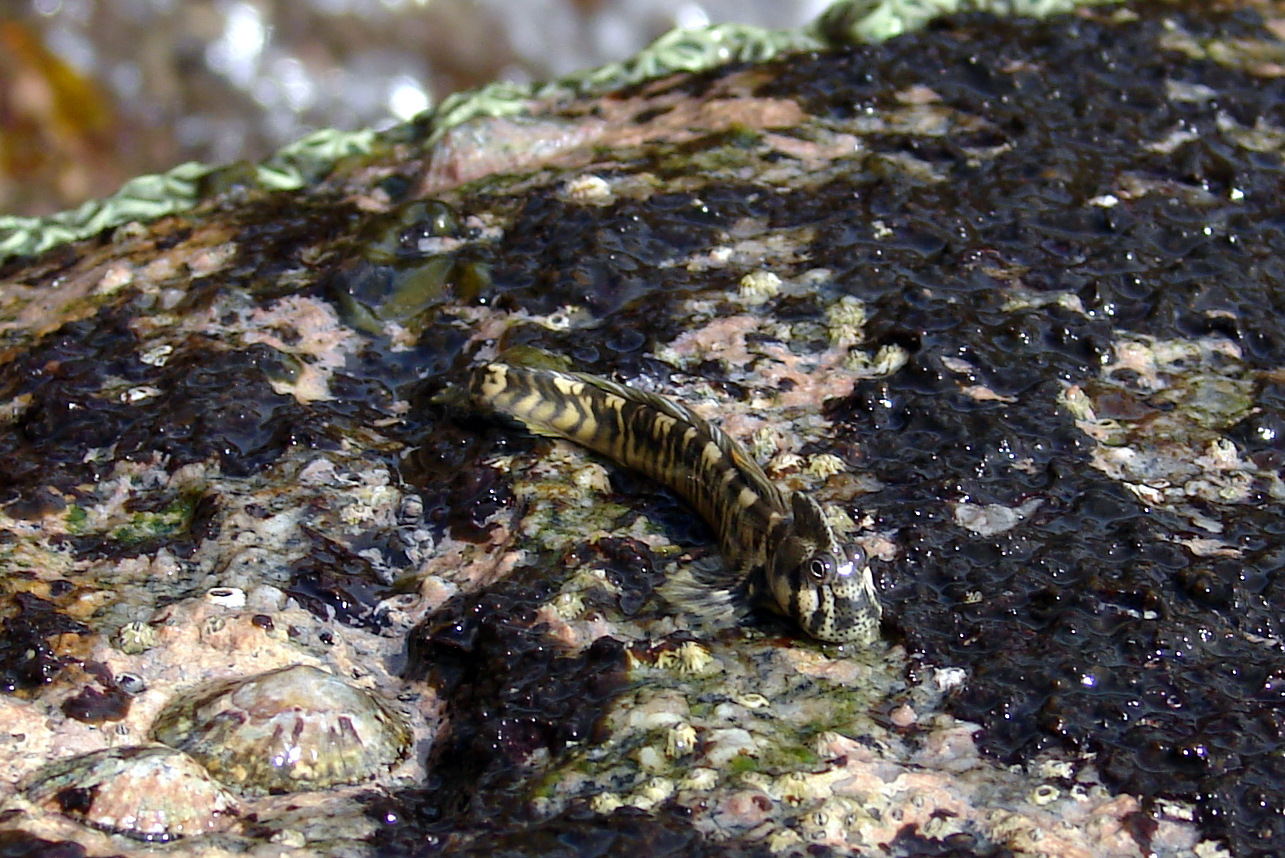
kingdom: Animalia
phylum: Chordata
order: Perciformes
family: Blenniidae
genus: Alticus
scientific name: Alticus monochrus
